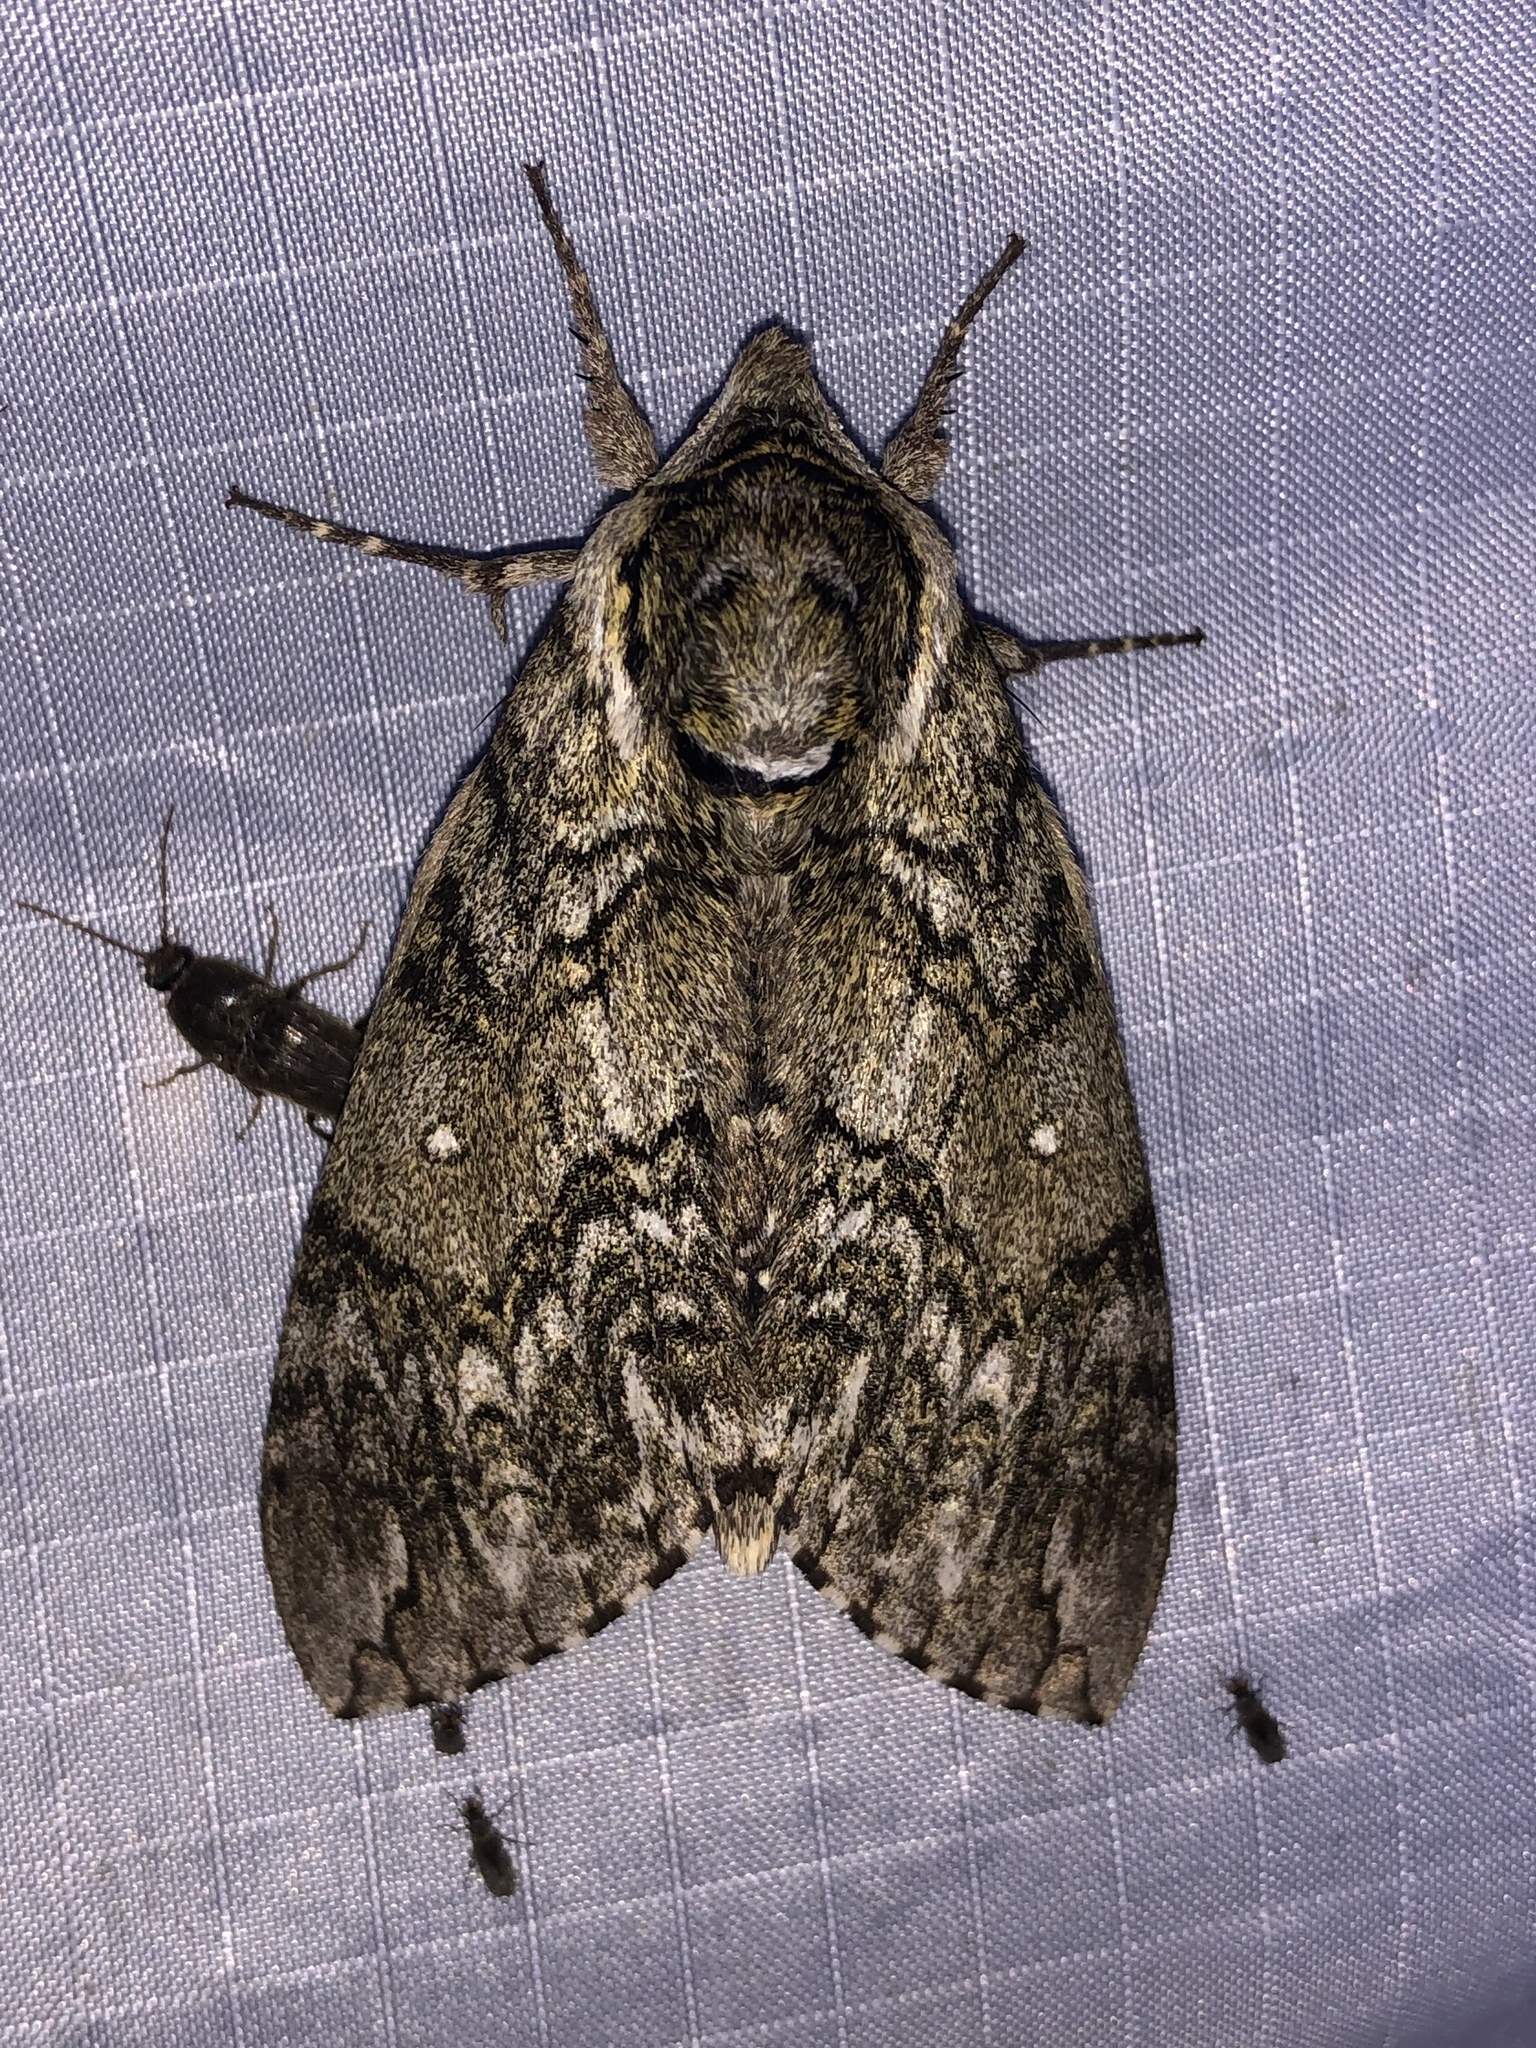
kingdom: Animalia
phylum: Arthropoda
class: Insecta
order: Lepidoptera
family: Sphingidae
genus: Ceratomia
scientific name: Ceratomia undulosa
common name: Waved sphinx
